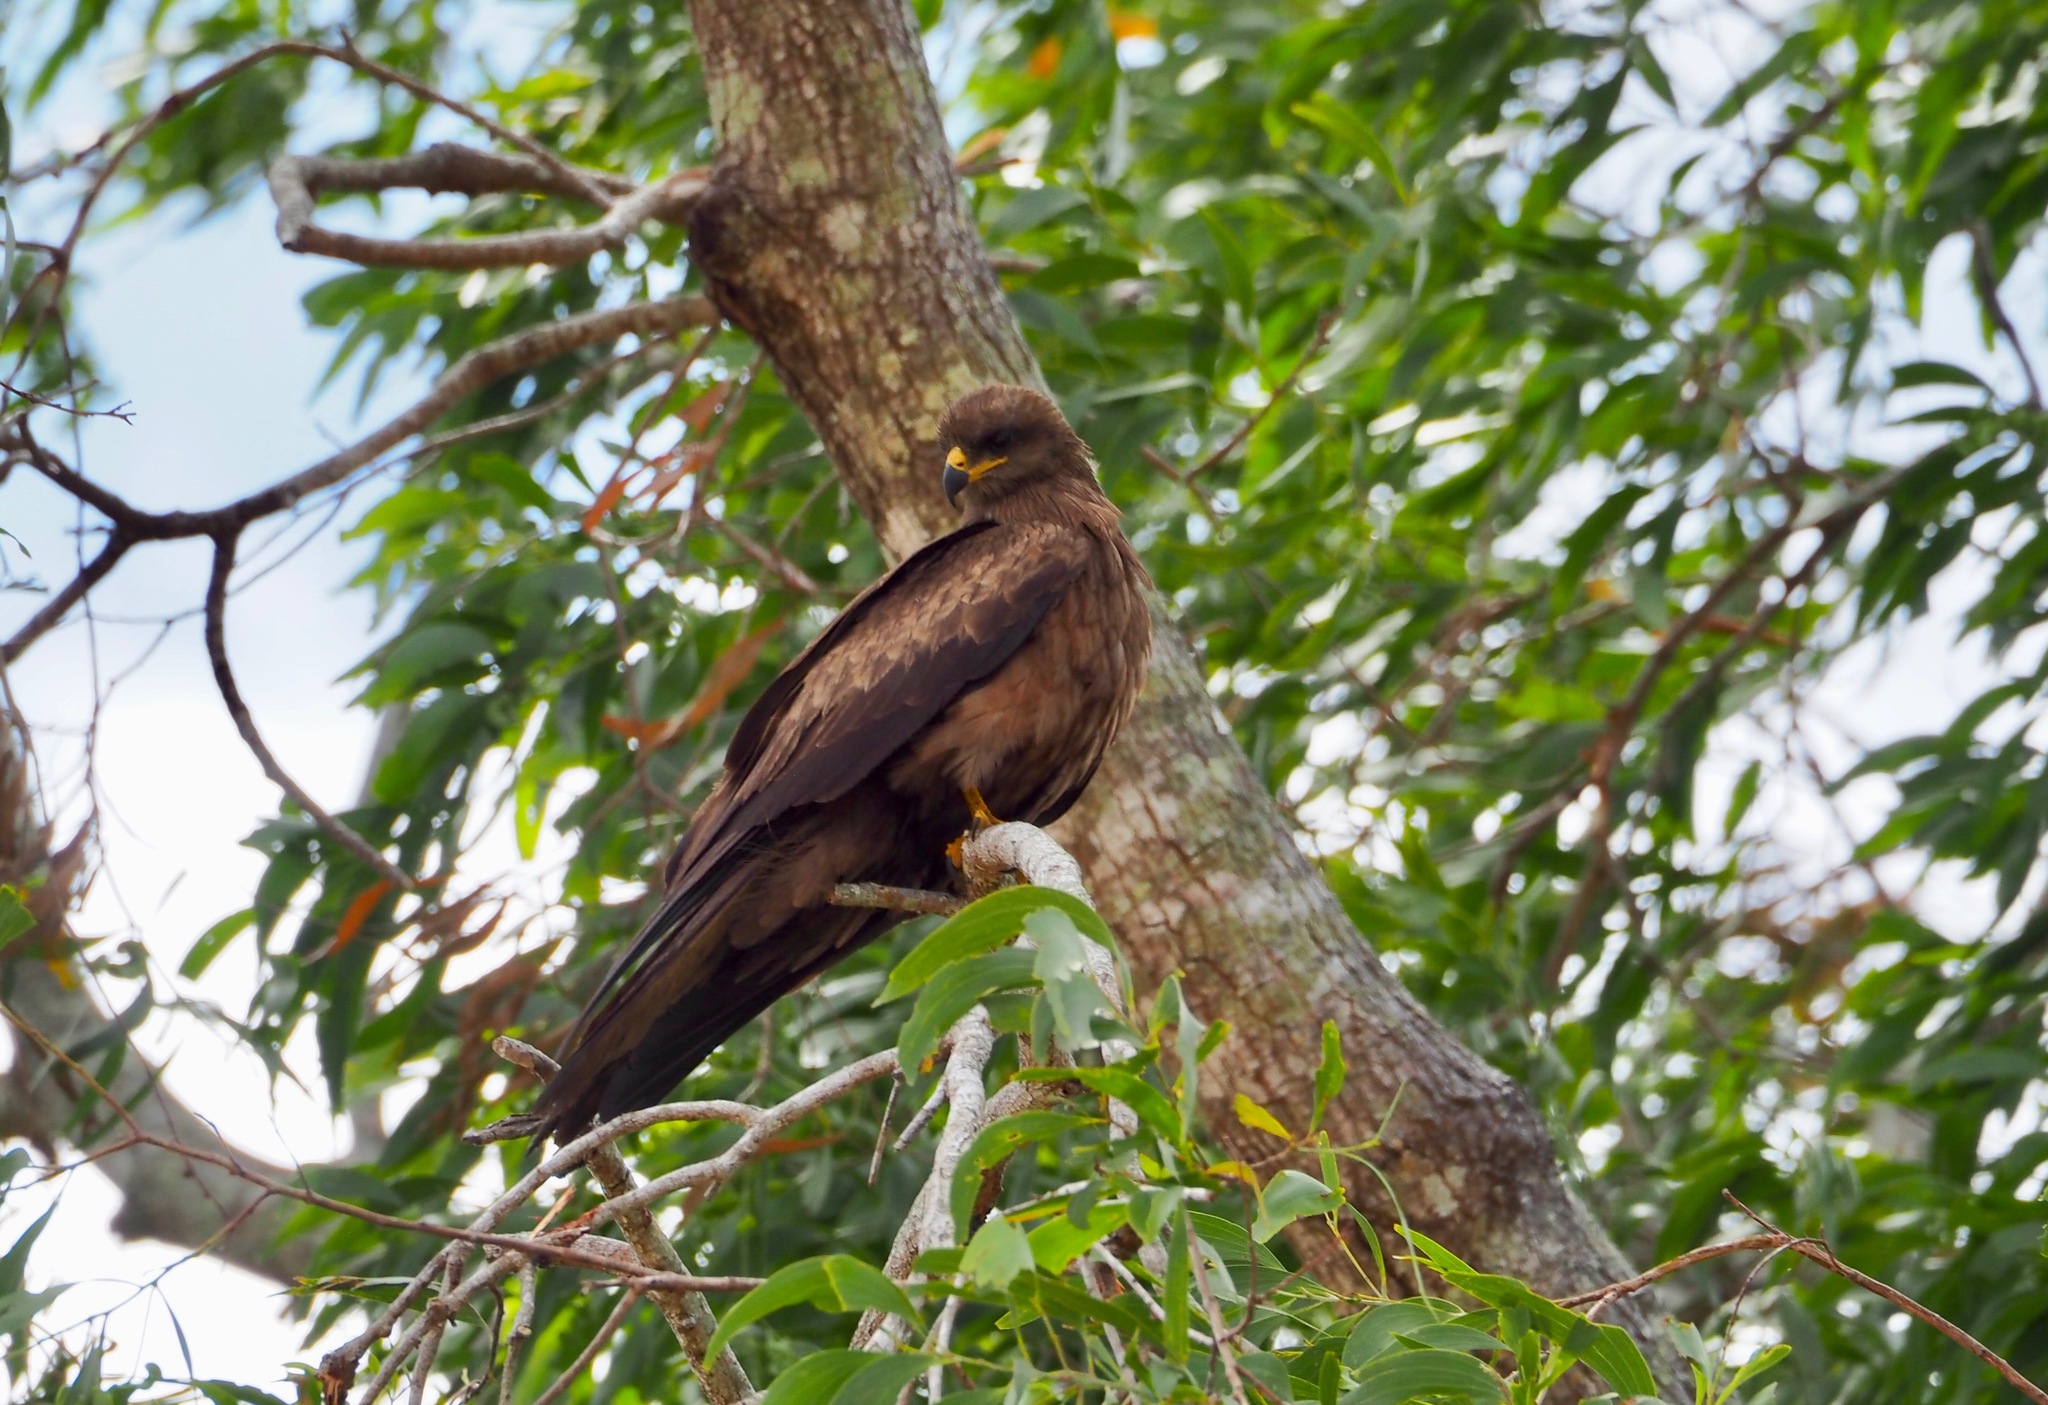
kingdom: Animalia
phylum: Chordata
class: Aves
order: Accipitriformes
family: Accipitridae
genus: Milvus
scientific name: Milvus migrans
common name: Black kite
